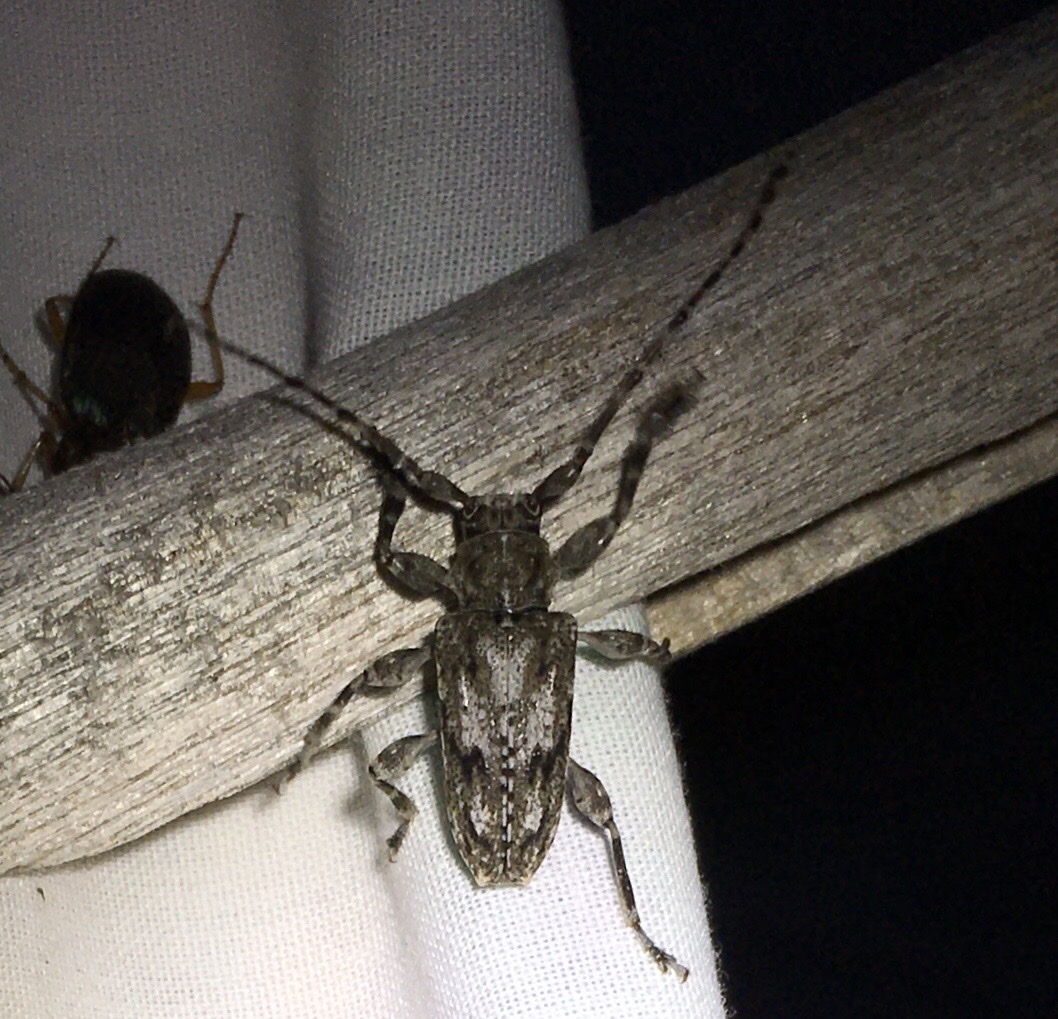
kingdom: Animalia
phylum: Arthropoda
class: Insecta
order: Coleoptera
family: Cerambycidae
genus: Aegomorphus
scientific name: Aegomorphus modestus
